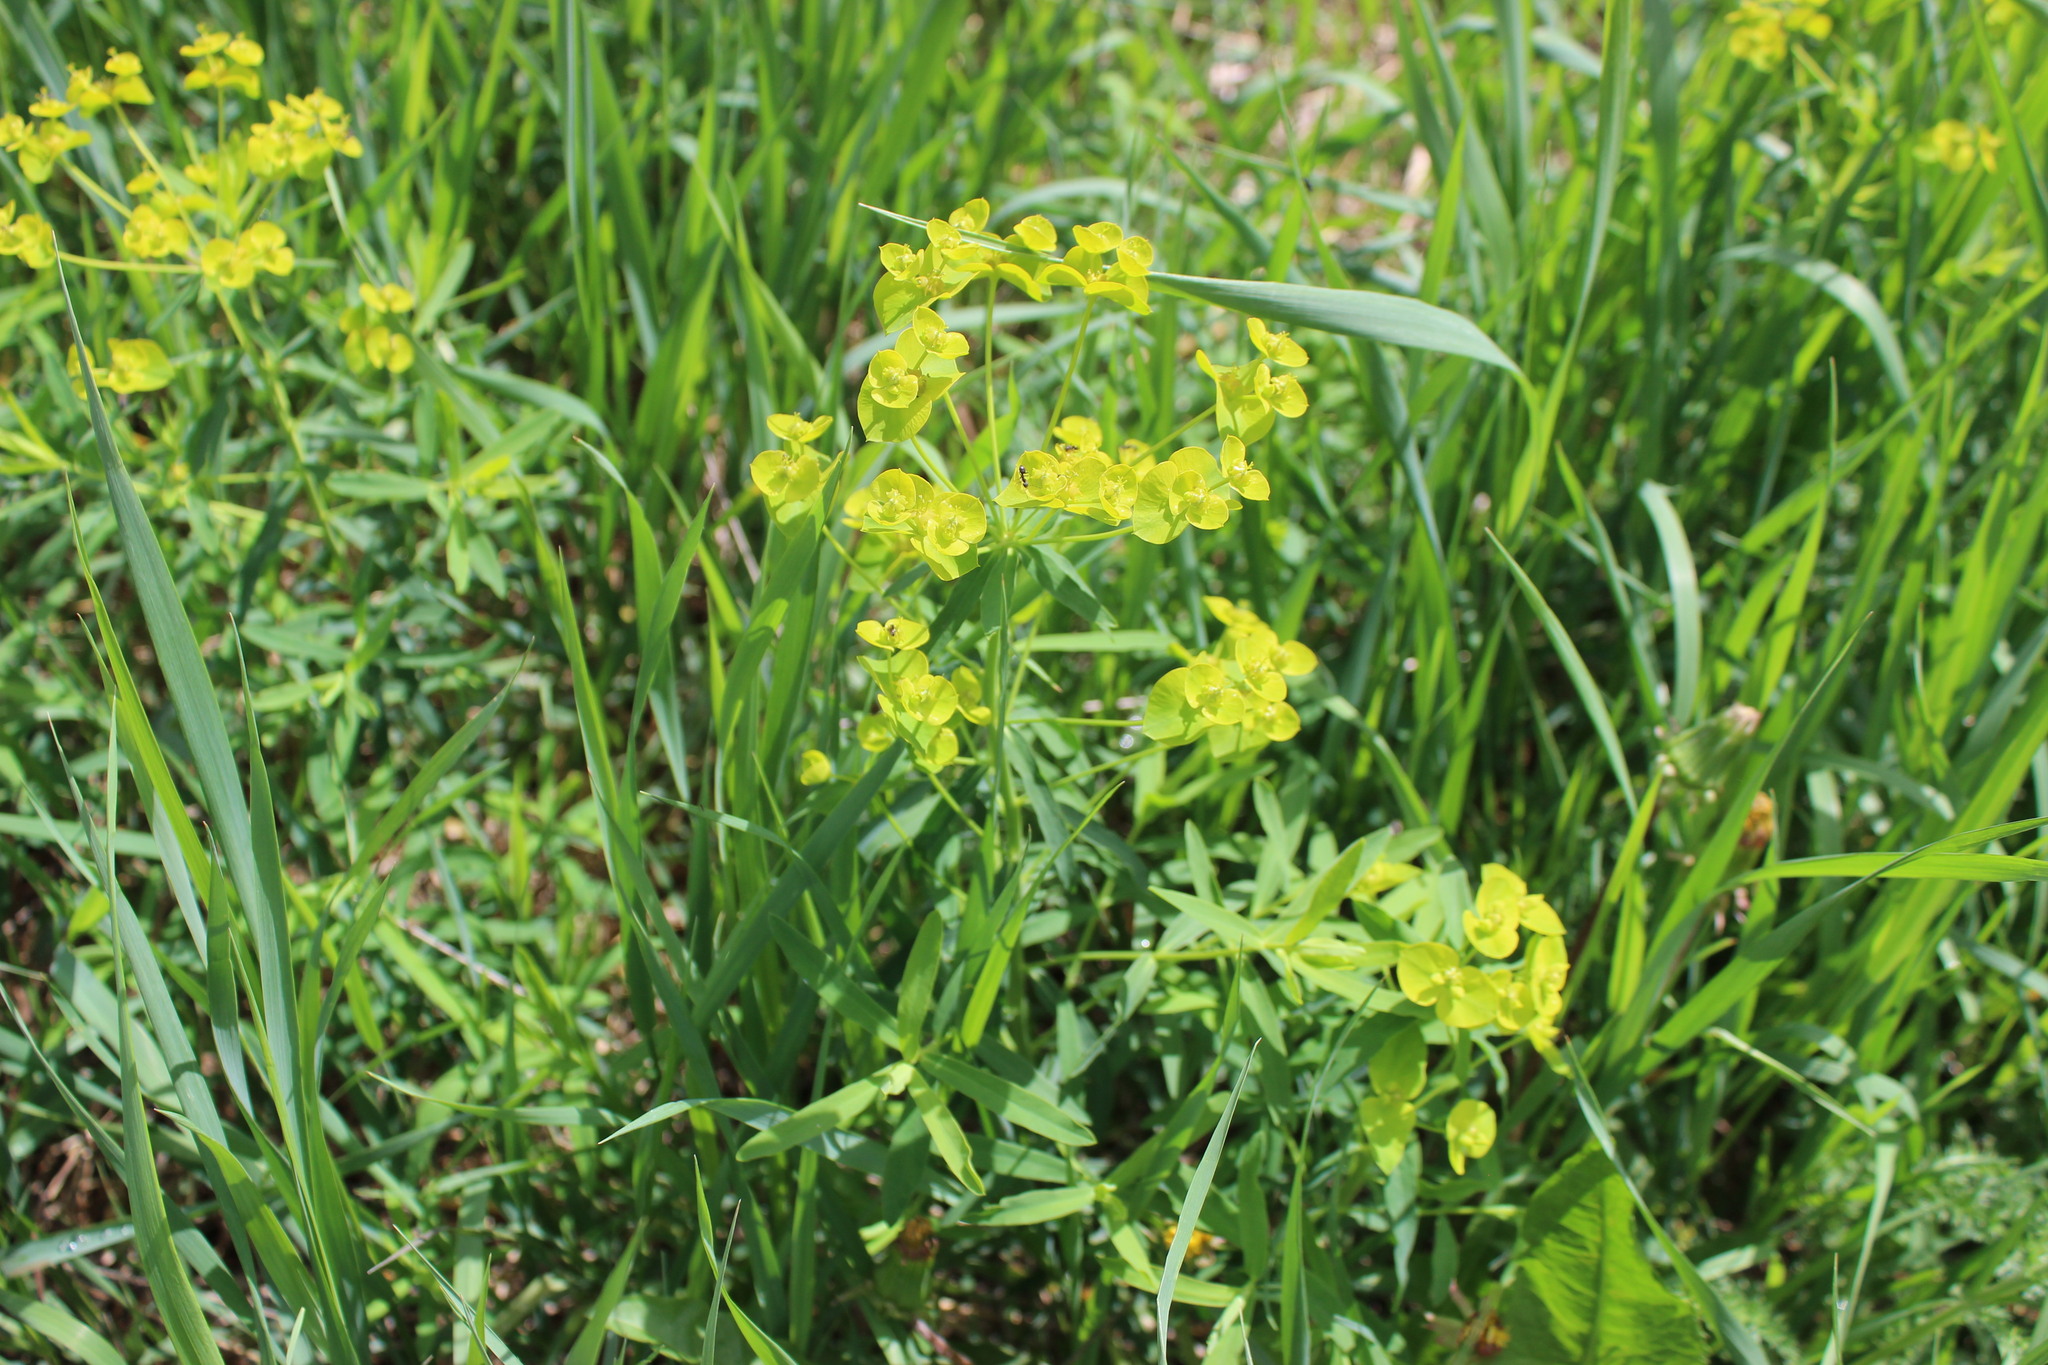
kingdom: Plantae
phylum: Tracheophyta
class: Magnoliopsida
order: Malpighiales
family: Euphorbiaceae
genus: Euphorbia
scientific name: Euphorbia virgata
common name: Leafy spurge
